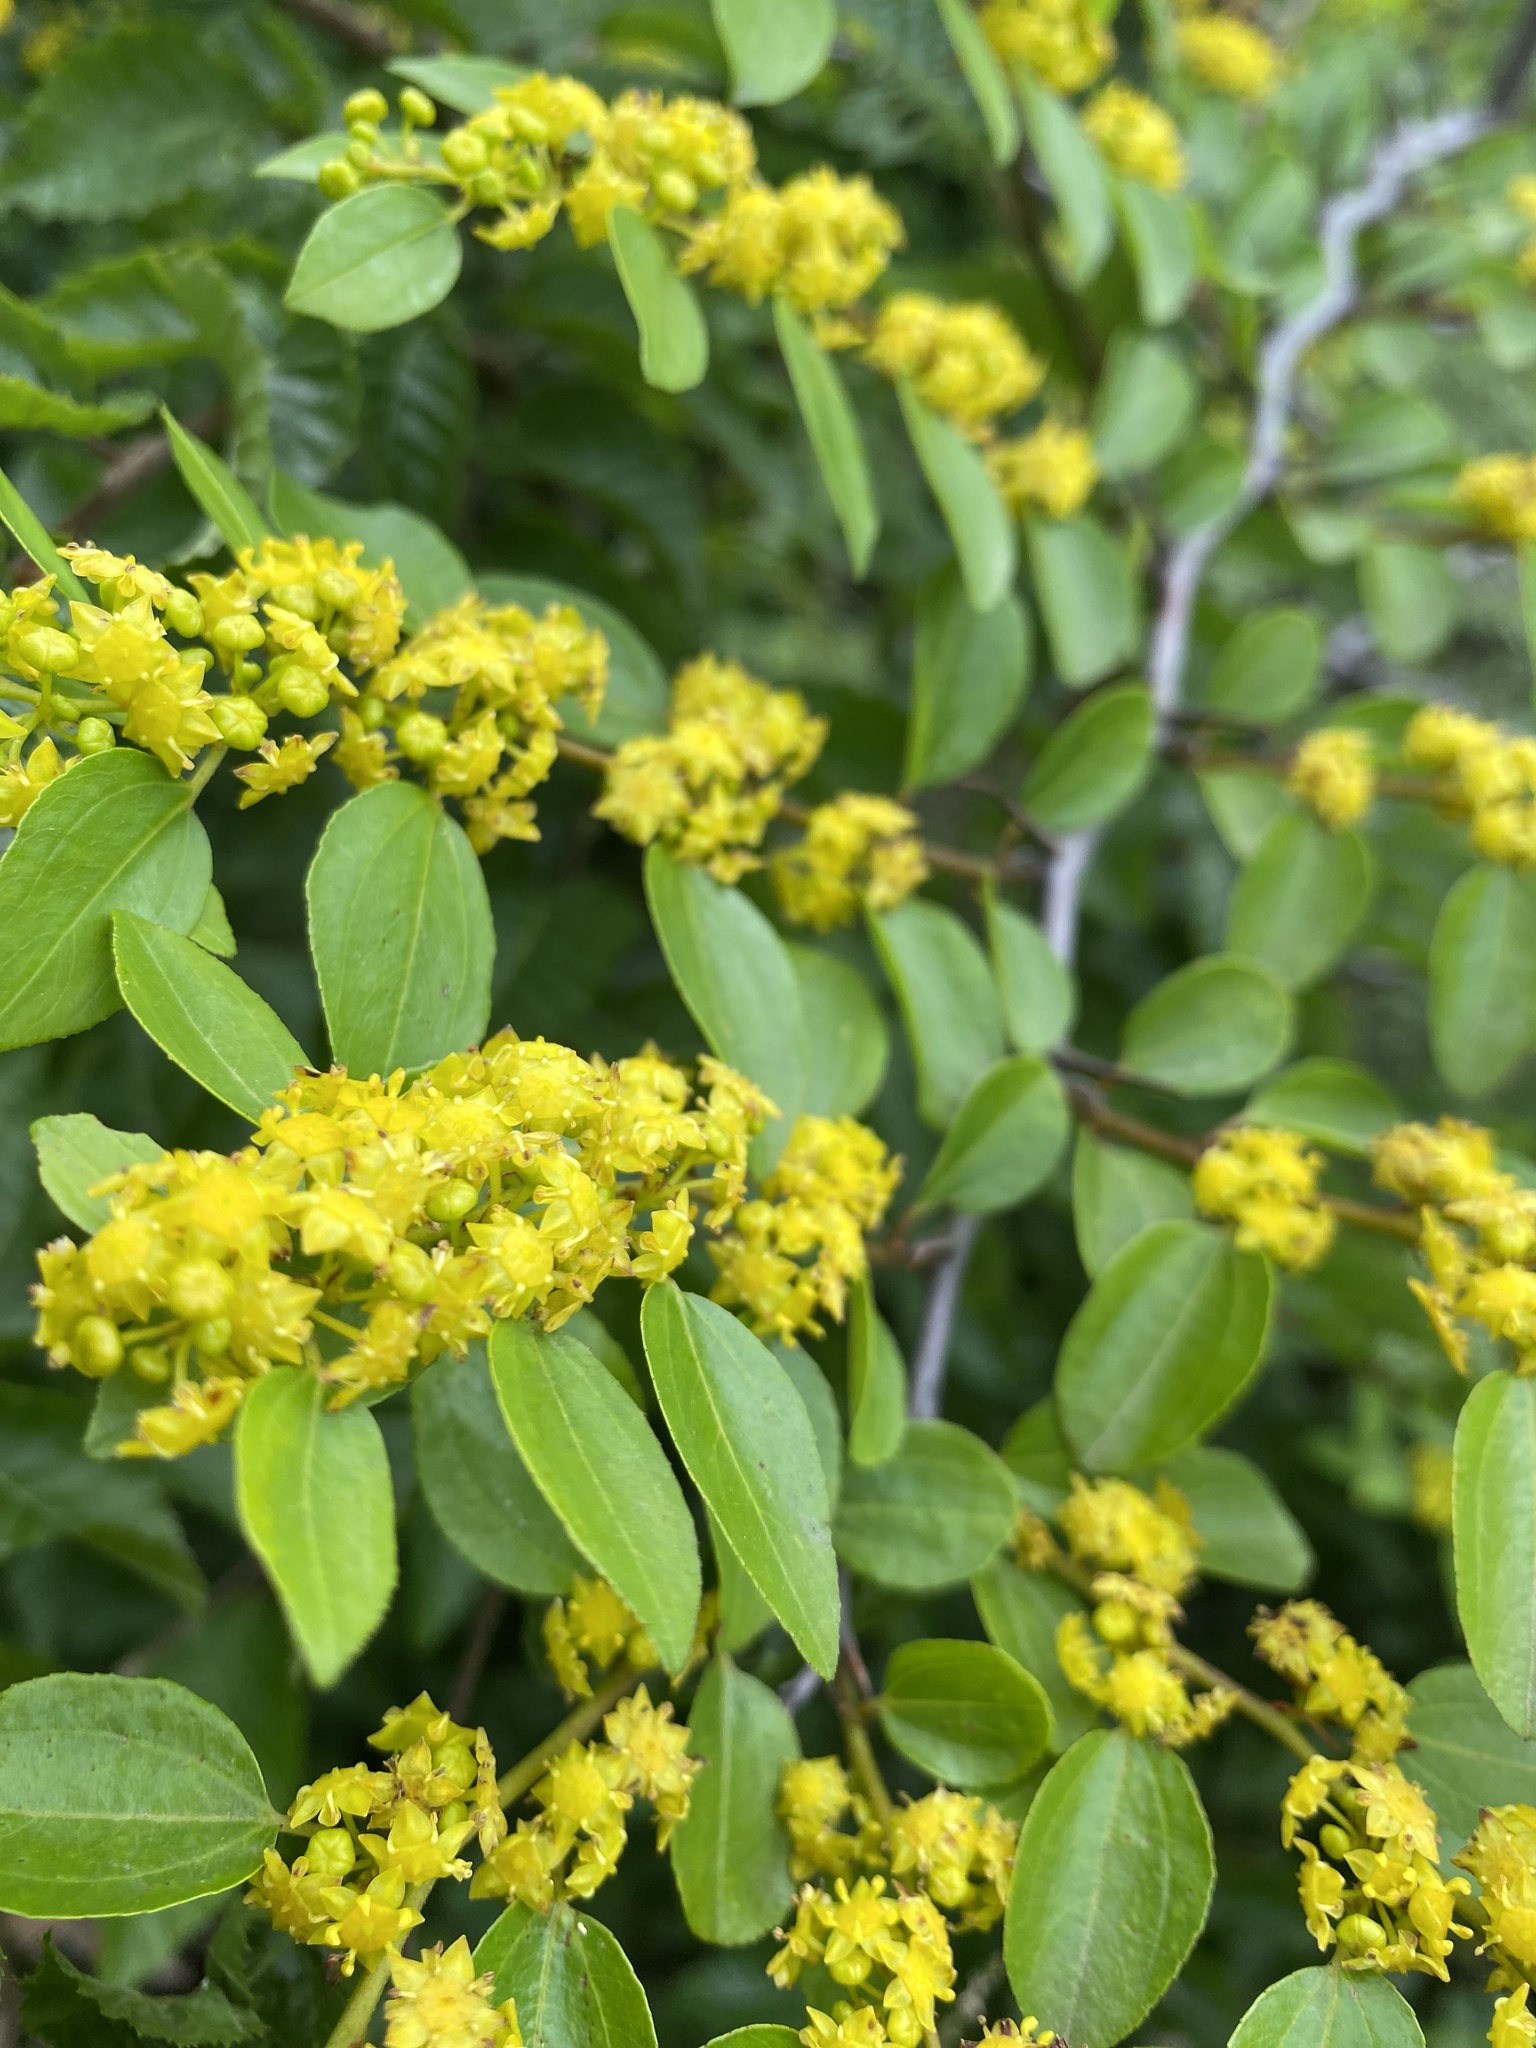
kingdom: Plantae
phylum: Tracheophyta
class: Magnoliopsida
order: Rosales
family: Rhamnaceae
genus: Paliurus
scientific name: Paliurus spina-christi
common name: Jeruselem thorn
